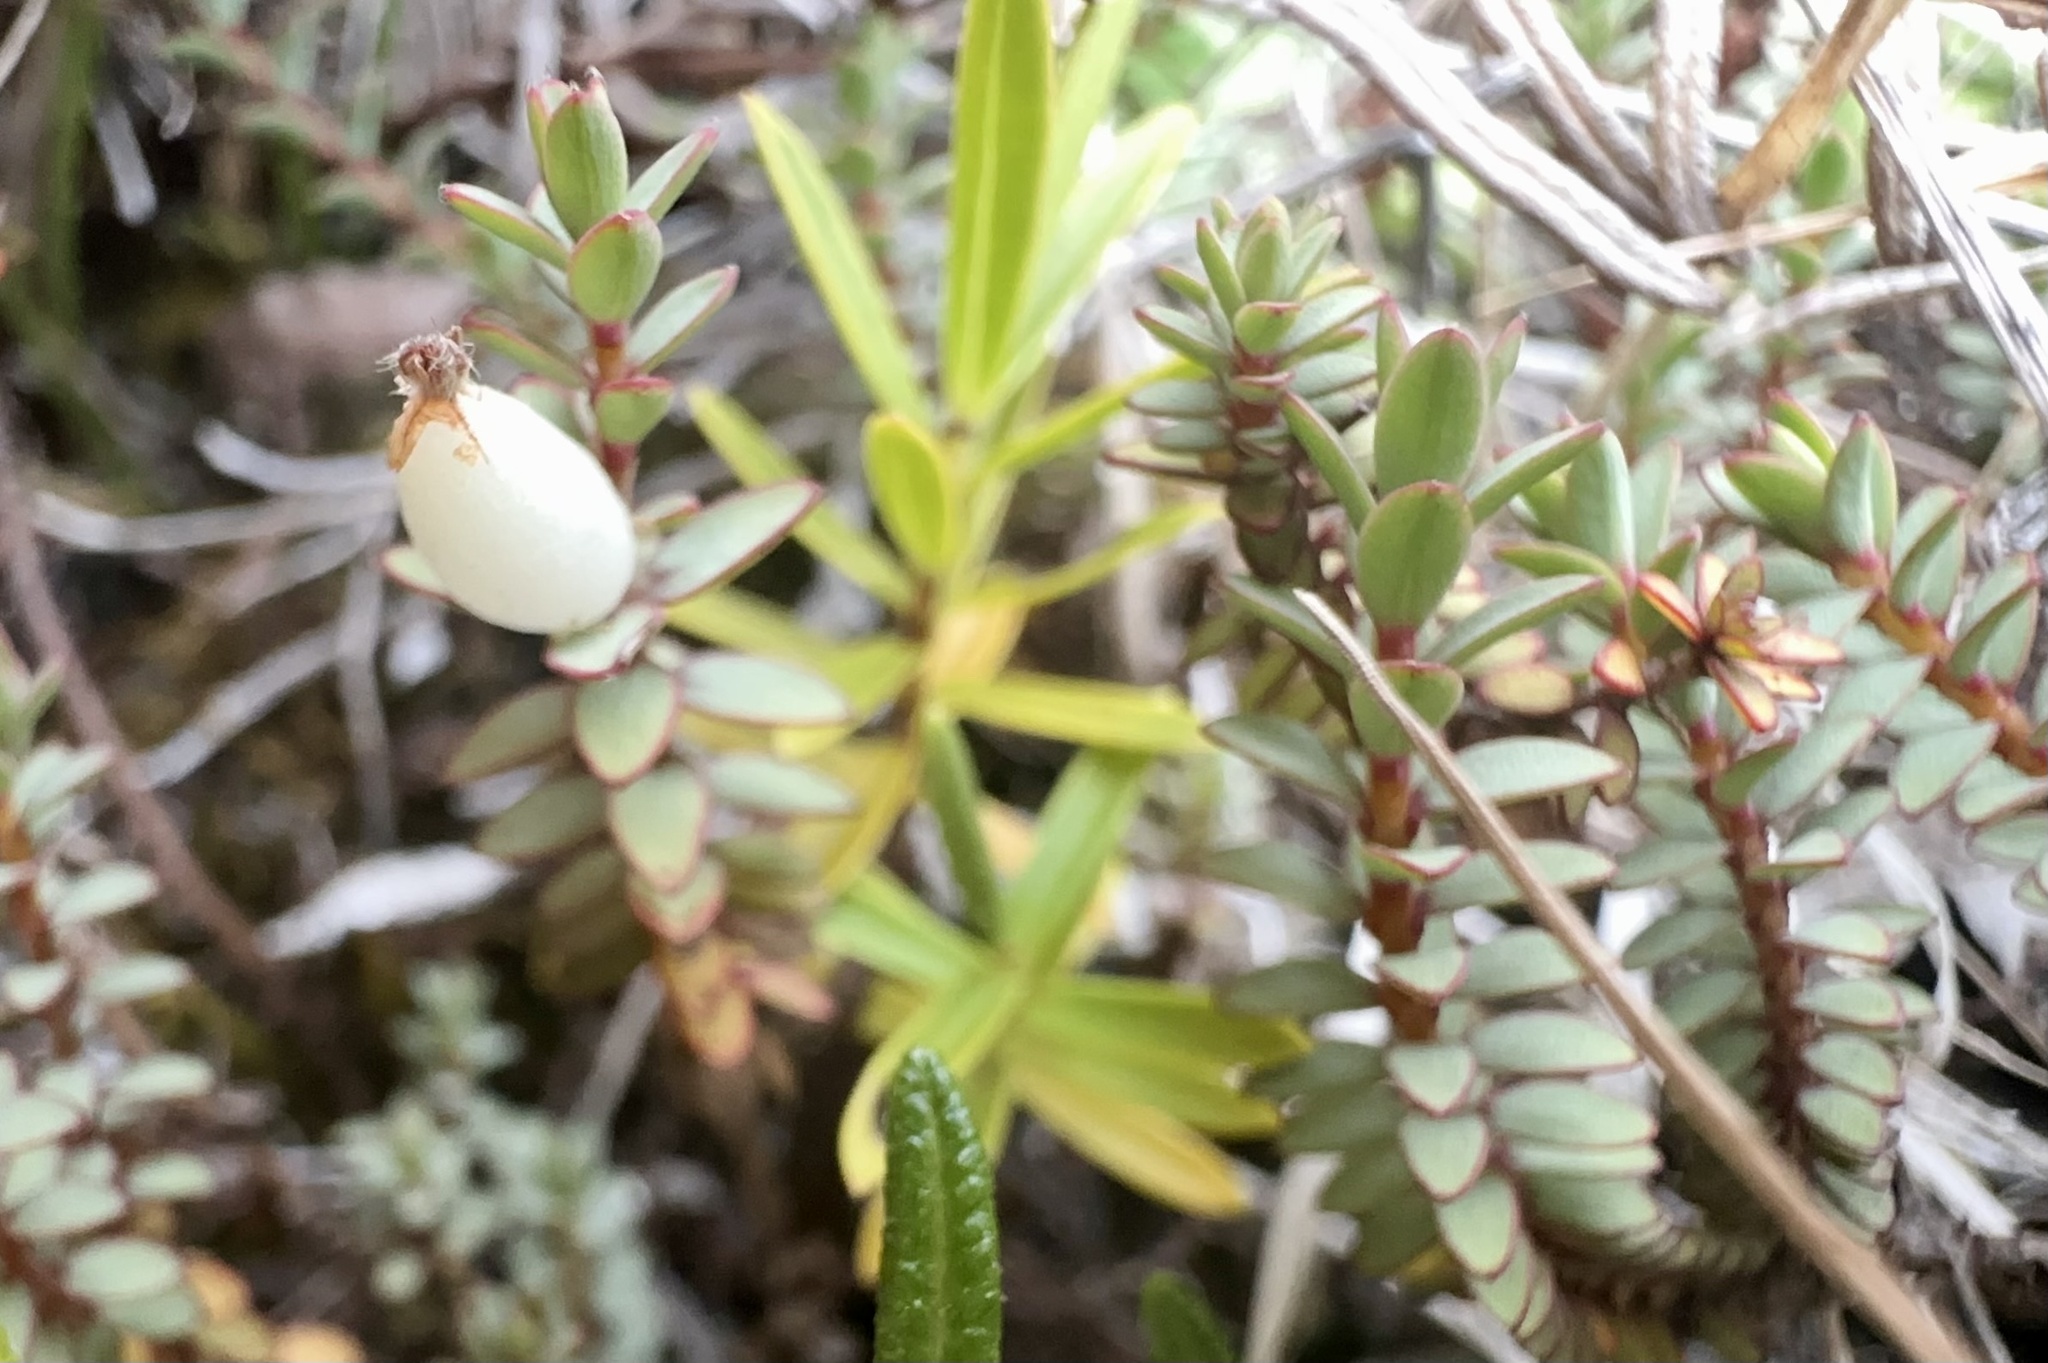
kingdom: Plantae
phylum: Tracheophyta
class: Magnoliopsida
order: Malvales
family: Thymelaeaceae
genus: Pimelea
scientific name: Pimelea prostrata
